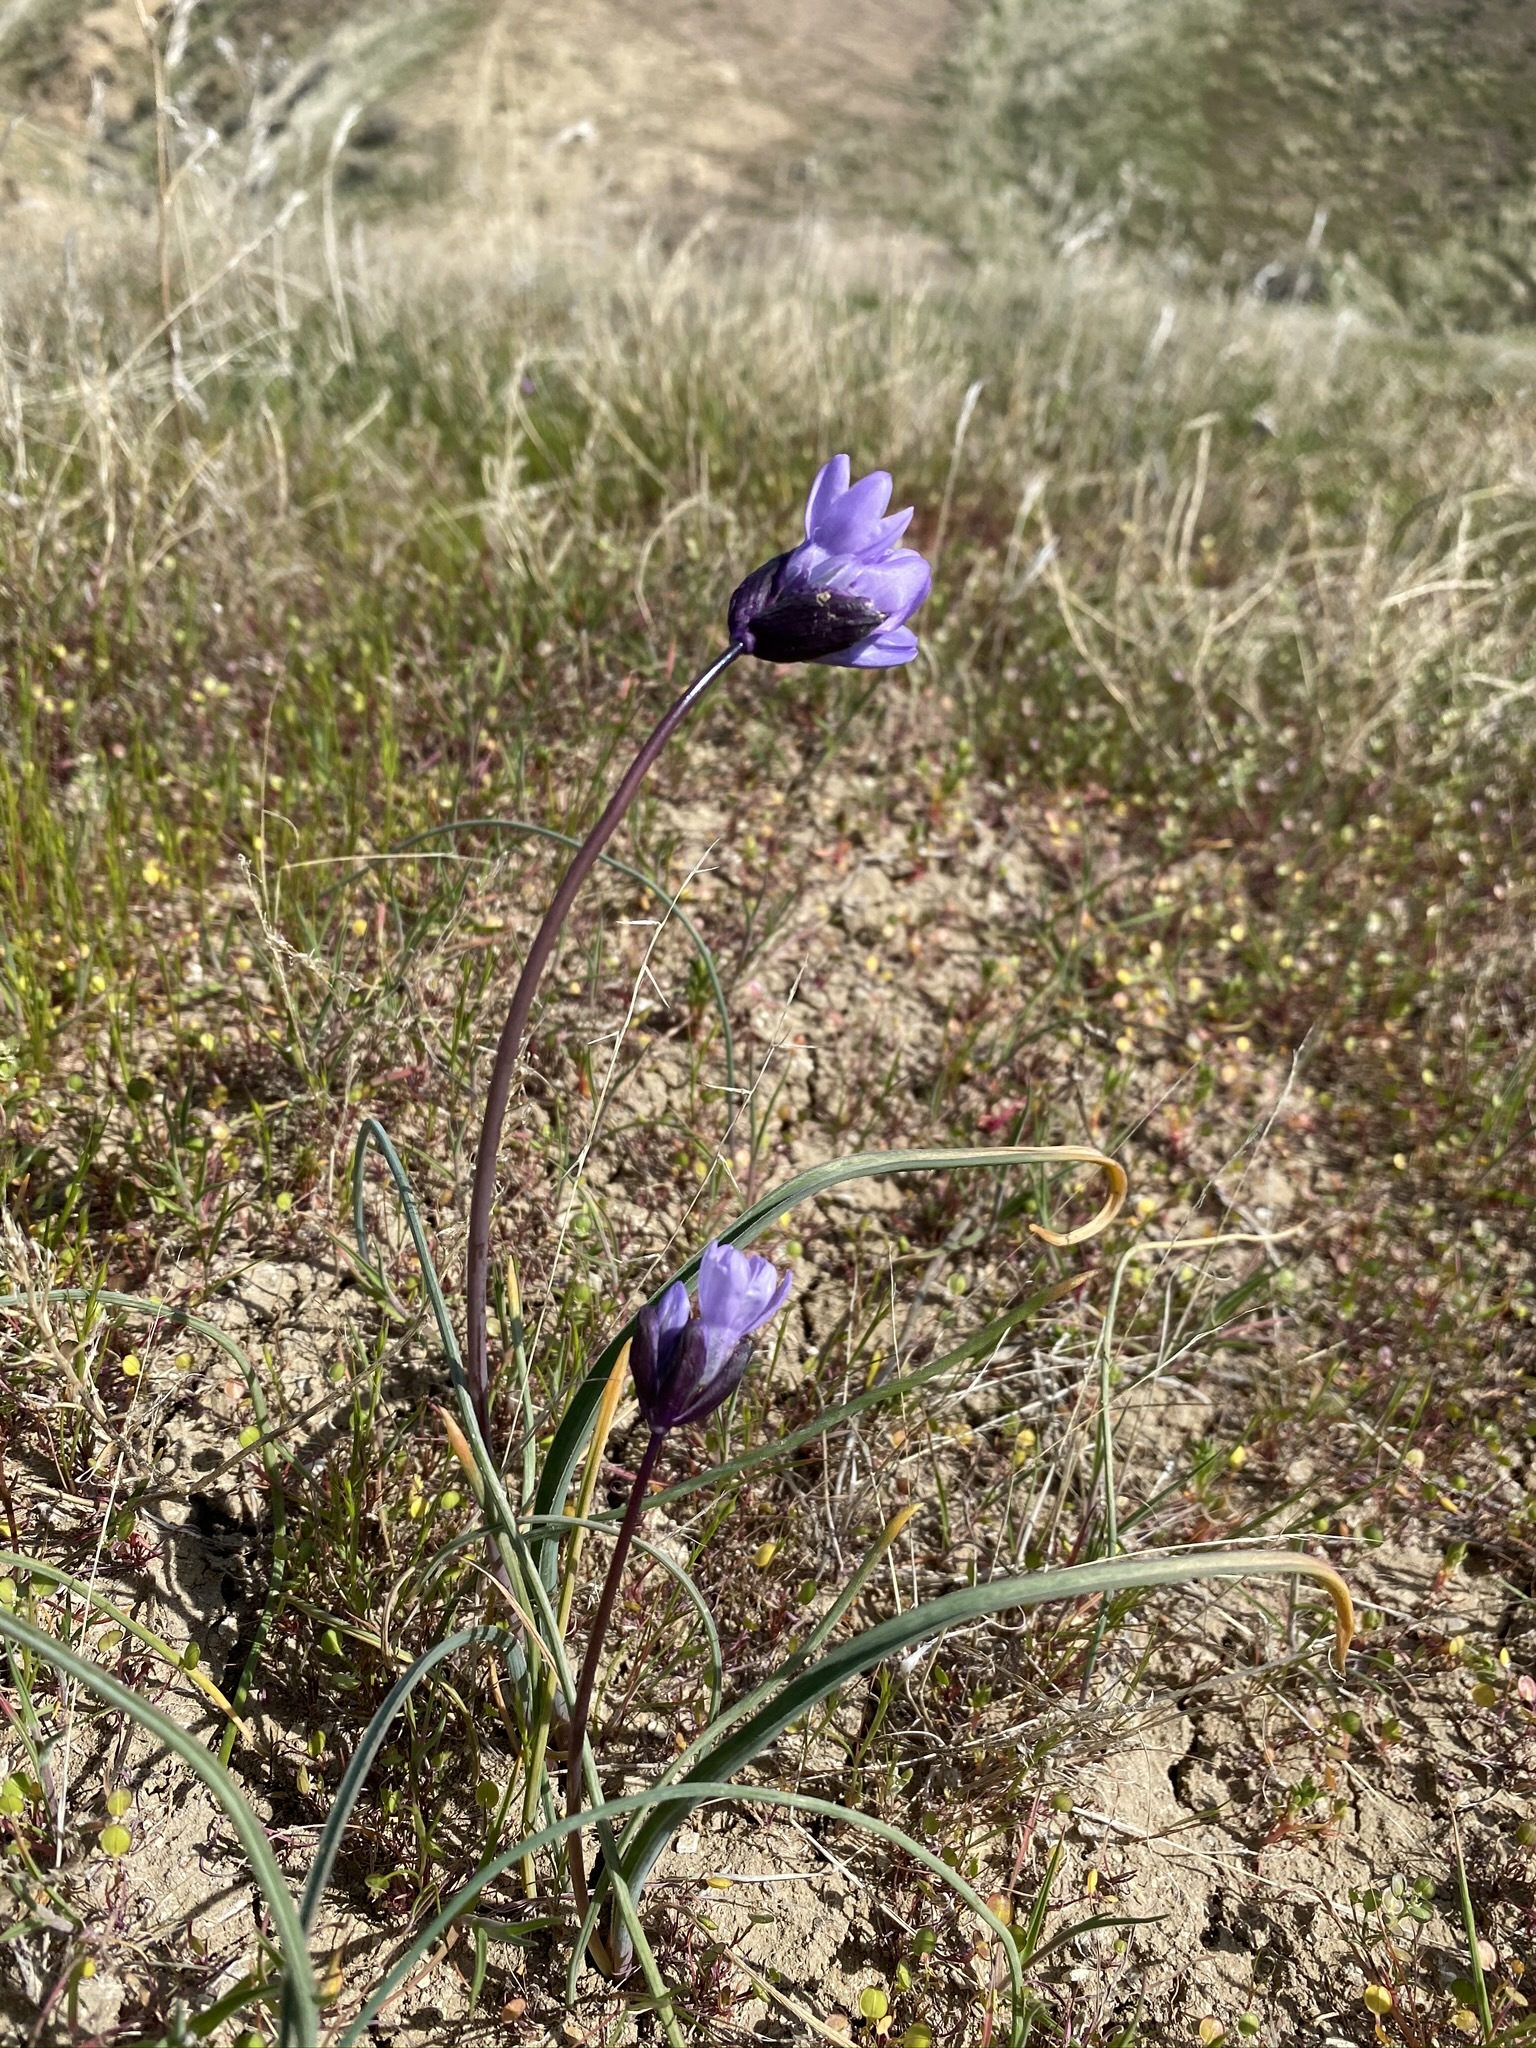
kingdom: Plantae
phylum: Tracheophyta
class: Liliopsida
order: Asparagales
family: Asparagaceae
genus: Dipterostemon
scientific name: Dipterostemon capitatus
